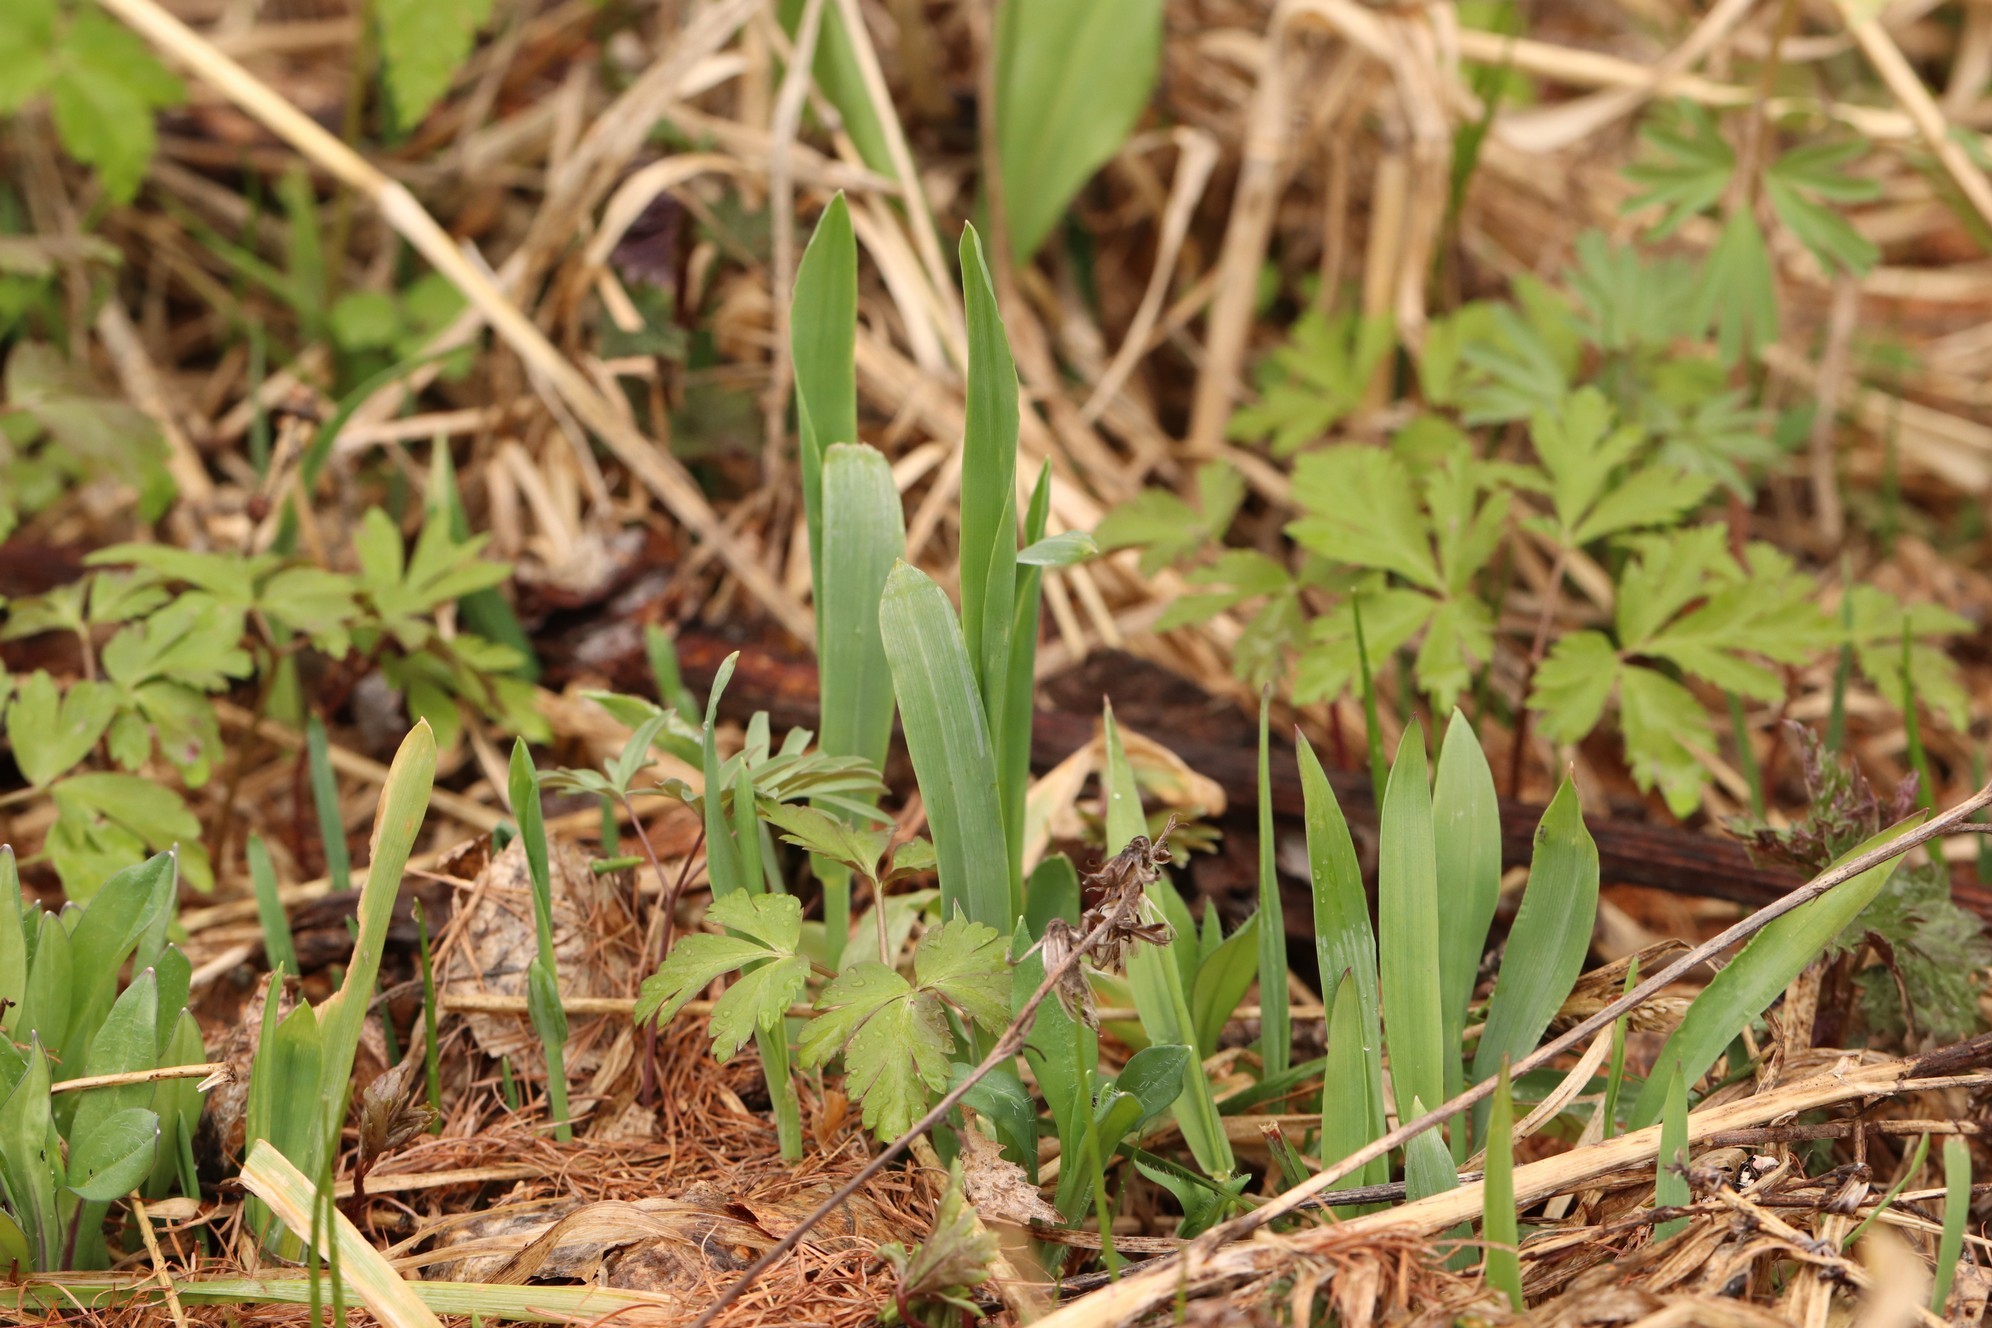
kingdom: Plantae
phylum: Tracheophyta
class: Liliopsida
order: Poales
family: Poaceae
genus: Milium
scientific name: Milium effusum
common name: Wood millet
